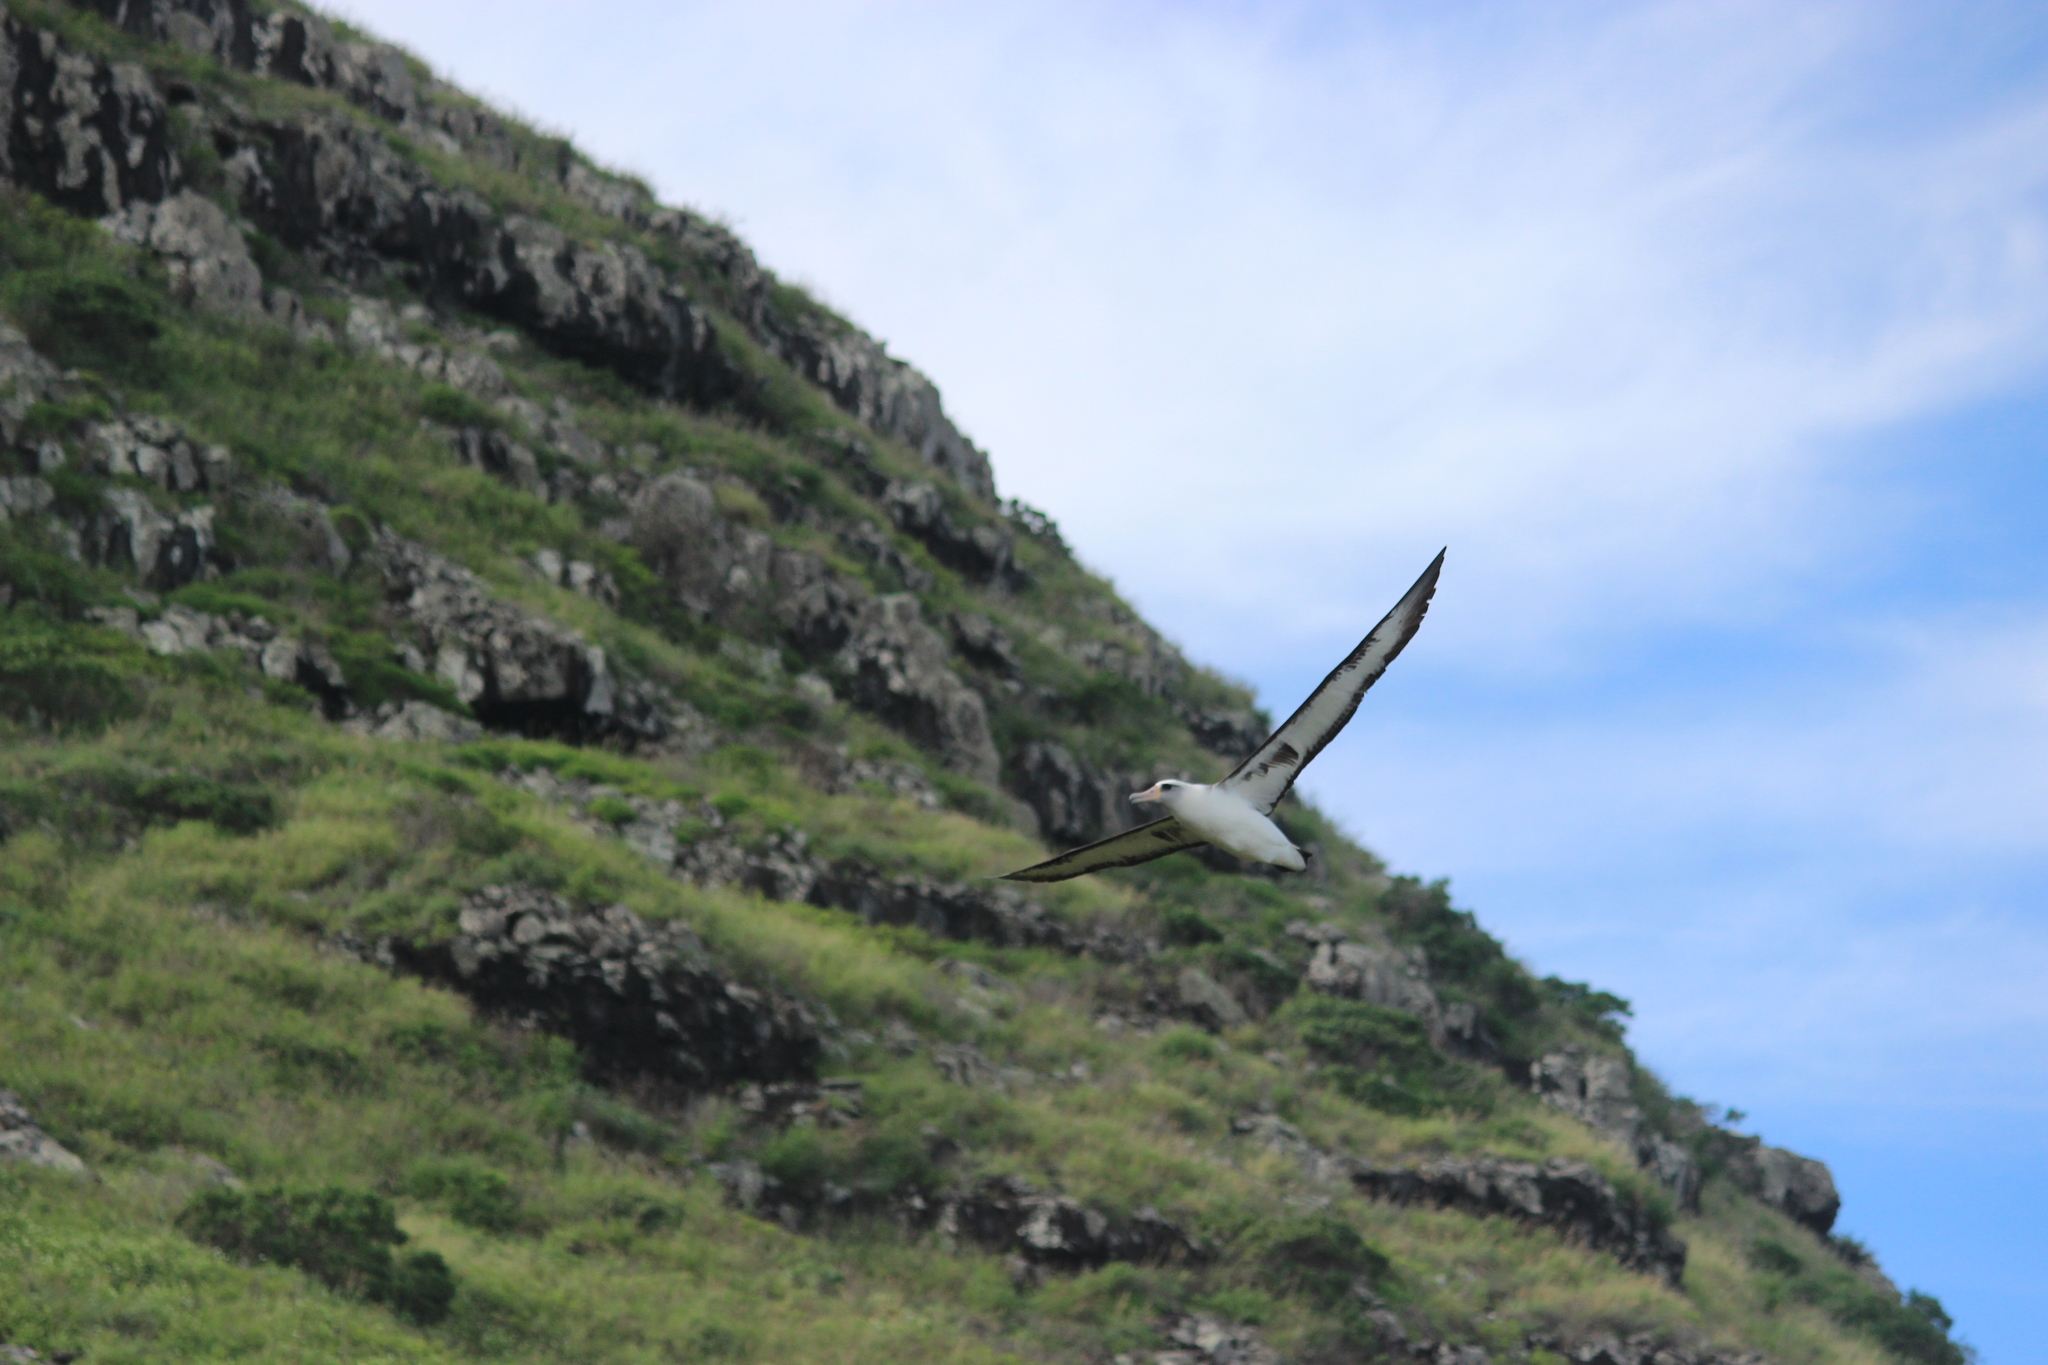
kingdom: Animalia
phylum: Chordata
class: Aves
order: Procellariiformes
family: Diomedeidae
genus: Phoebastria
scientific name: Phoebastria immutabilis
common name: Laysan albatross
